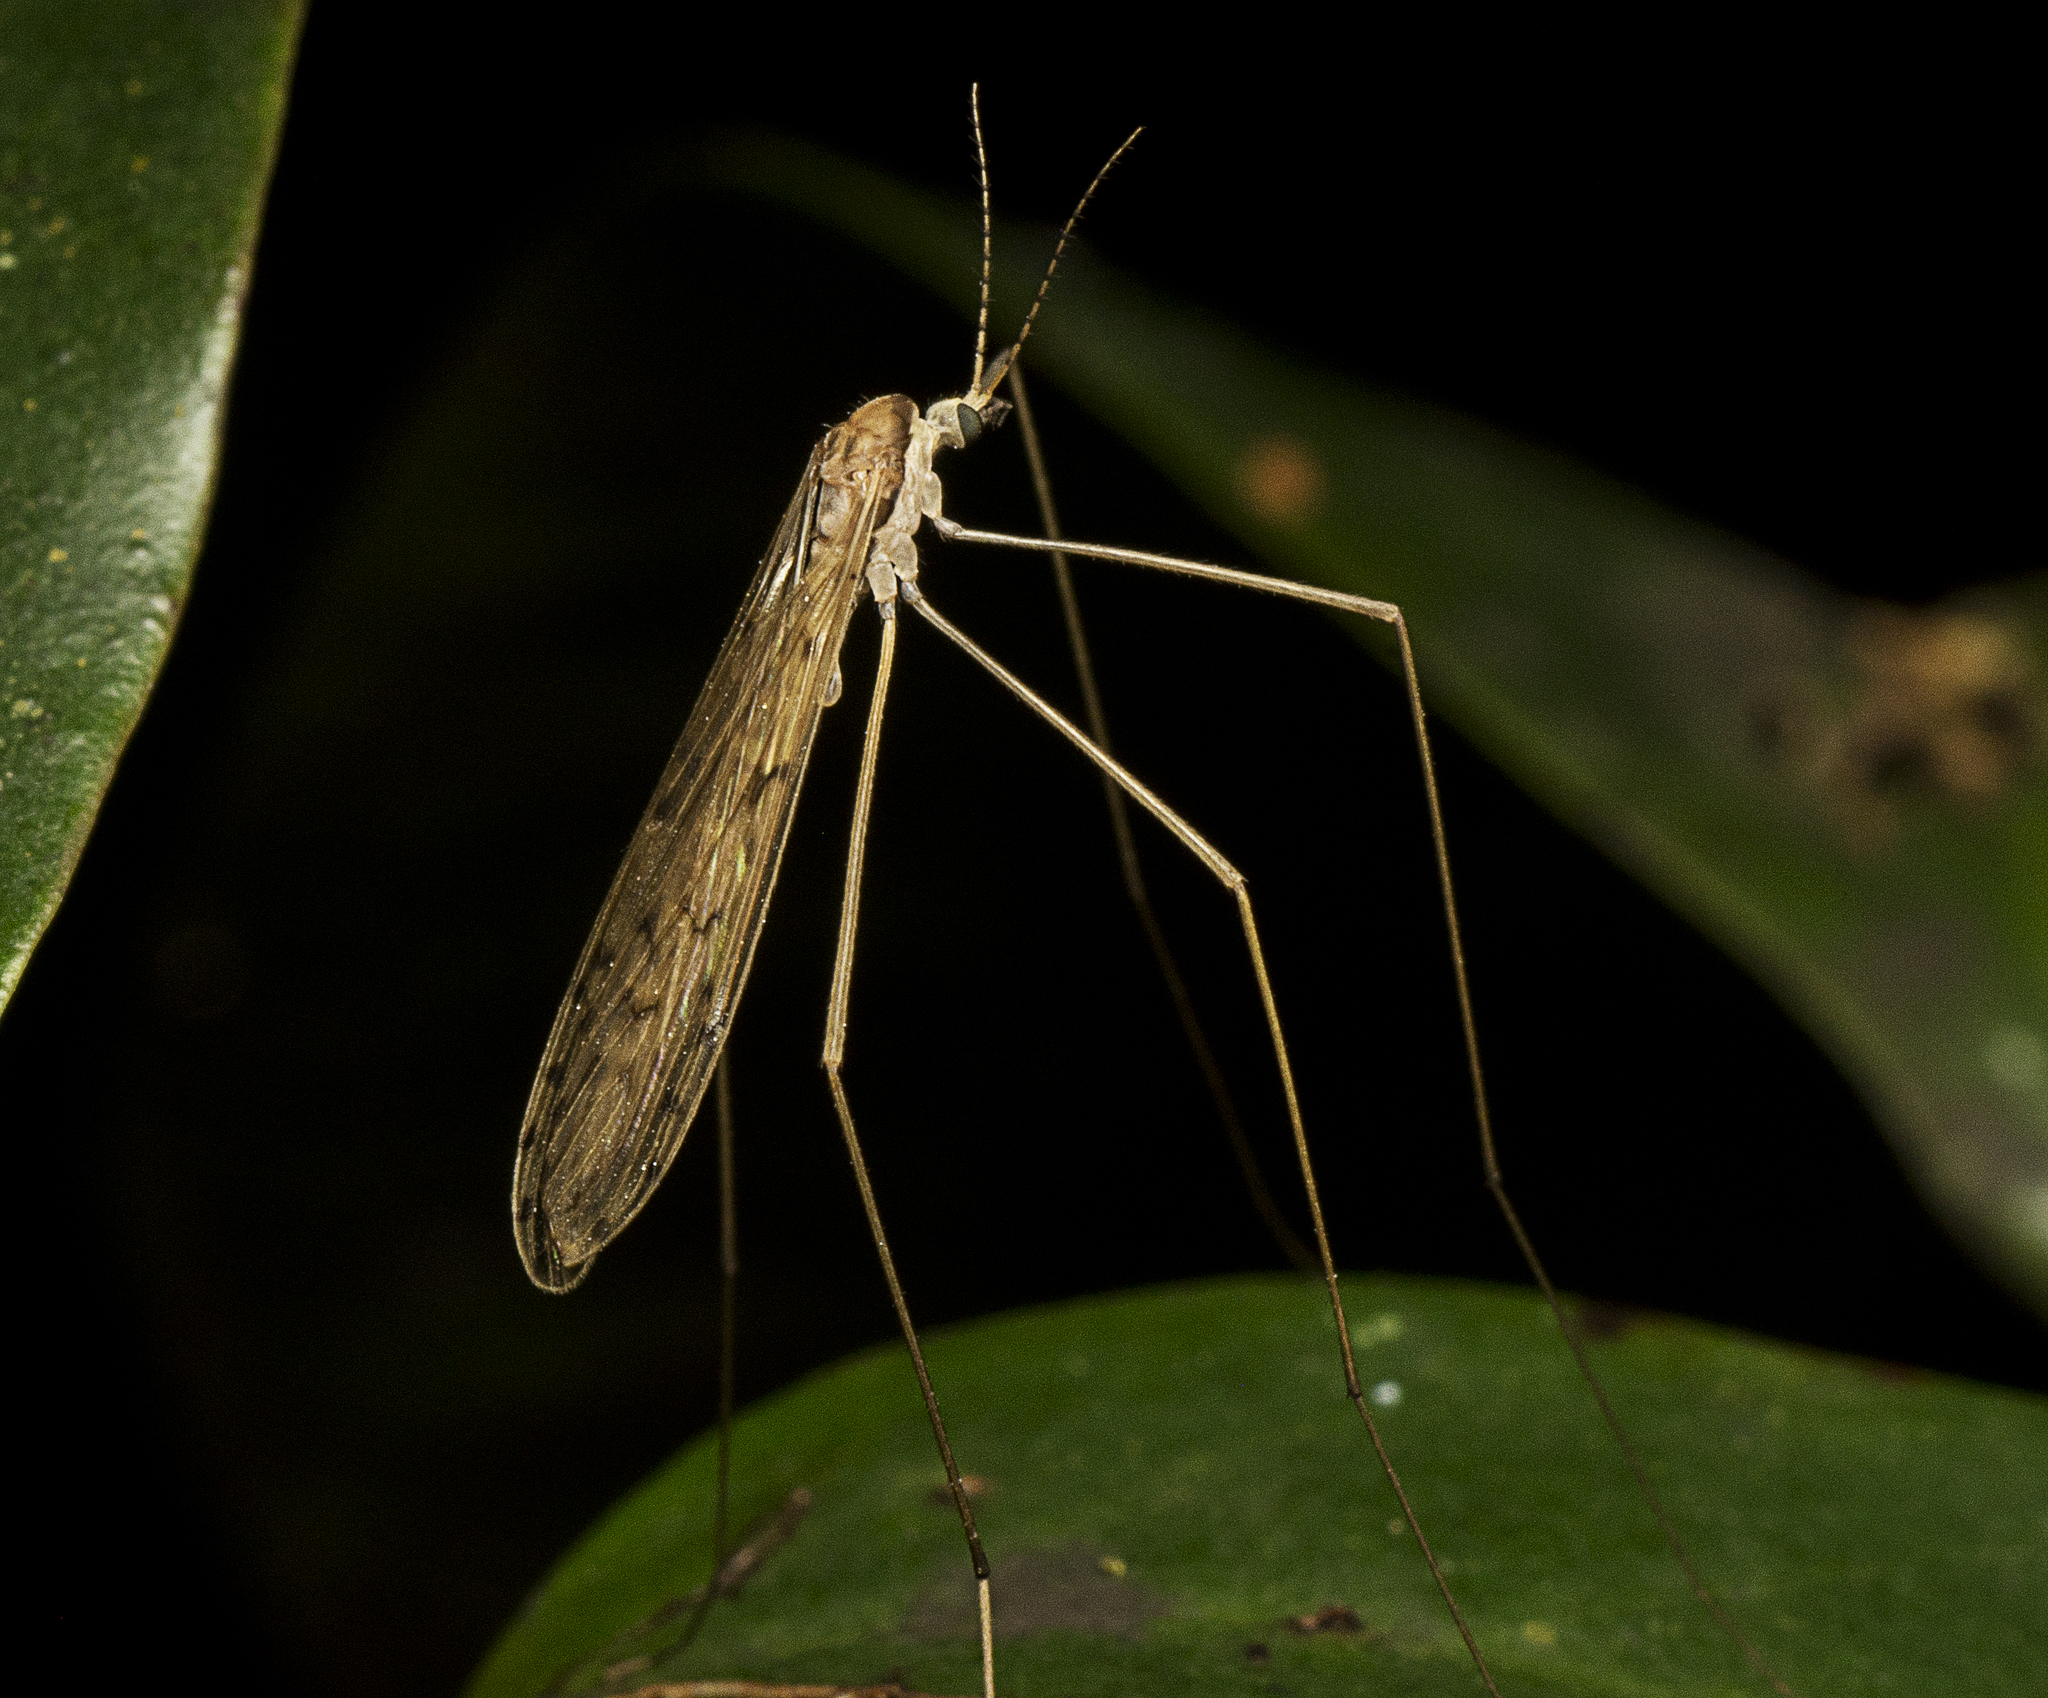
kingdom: Animalia
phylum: Arthropoda
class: Insecta
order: Diptera
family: Limoniidae
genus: Austrolimnophila
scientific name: Austrolimnophila interventa
